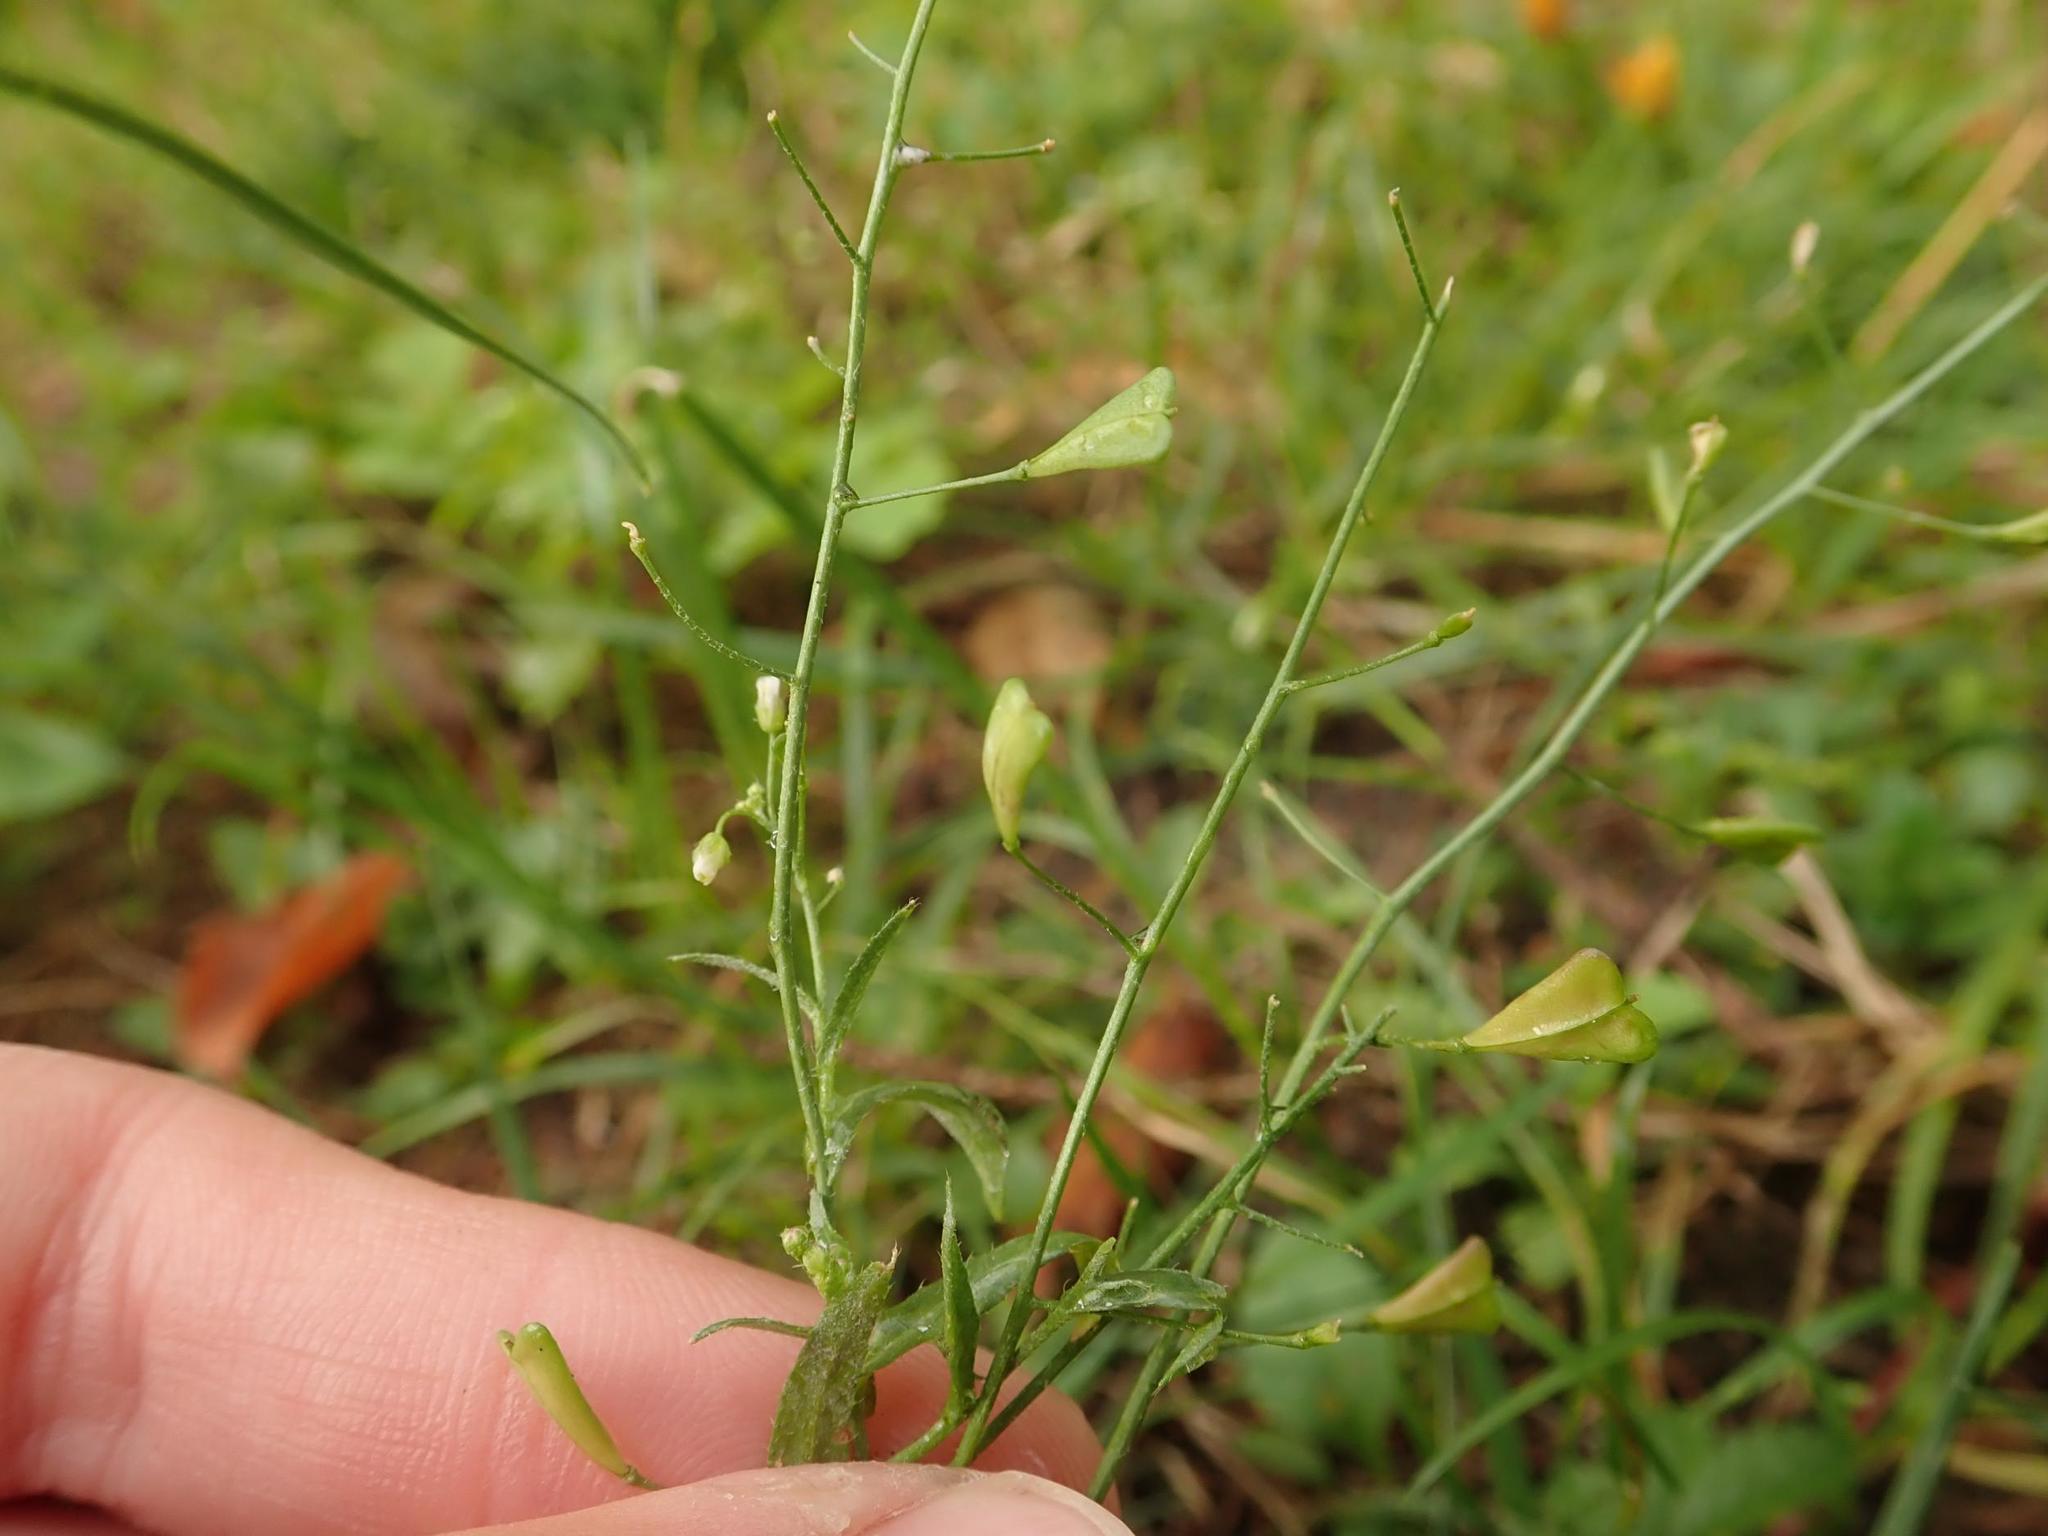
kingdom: Plantae
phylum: Tracheophyta
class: Magnoliopsida
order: Brassicales
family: Brassicaceae
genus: Capsella
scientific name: Capsella bursa-pastoris
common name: Shepherd's purse
